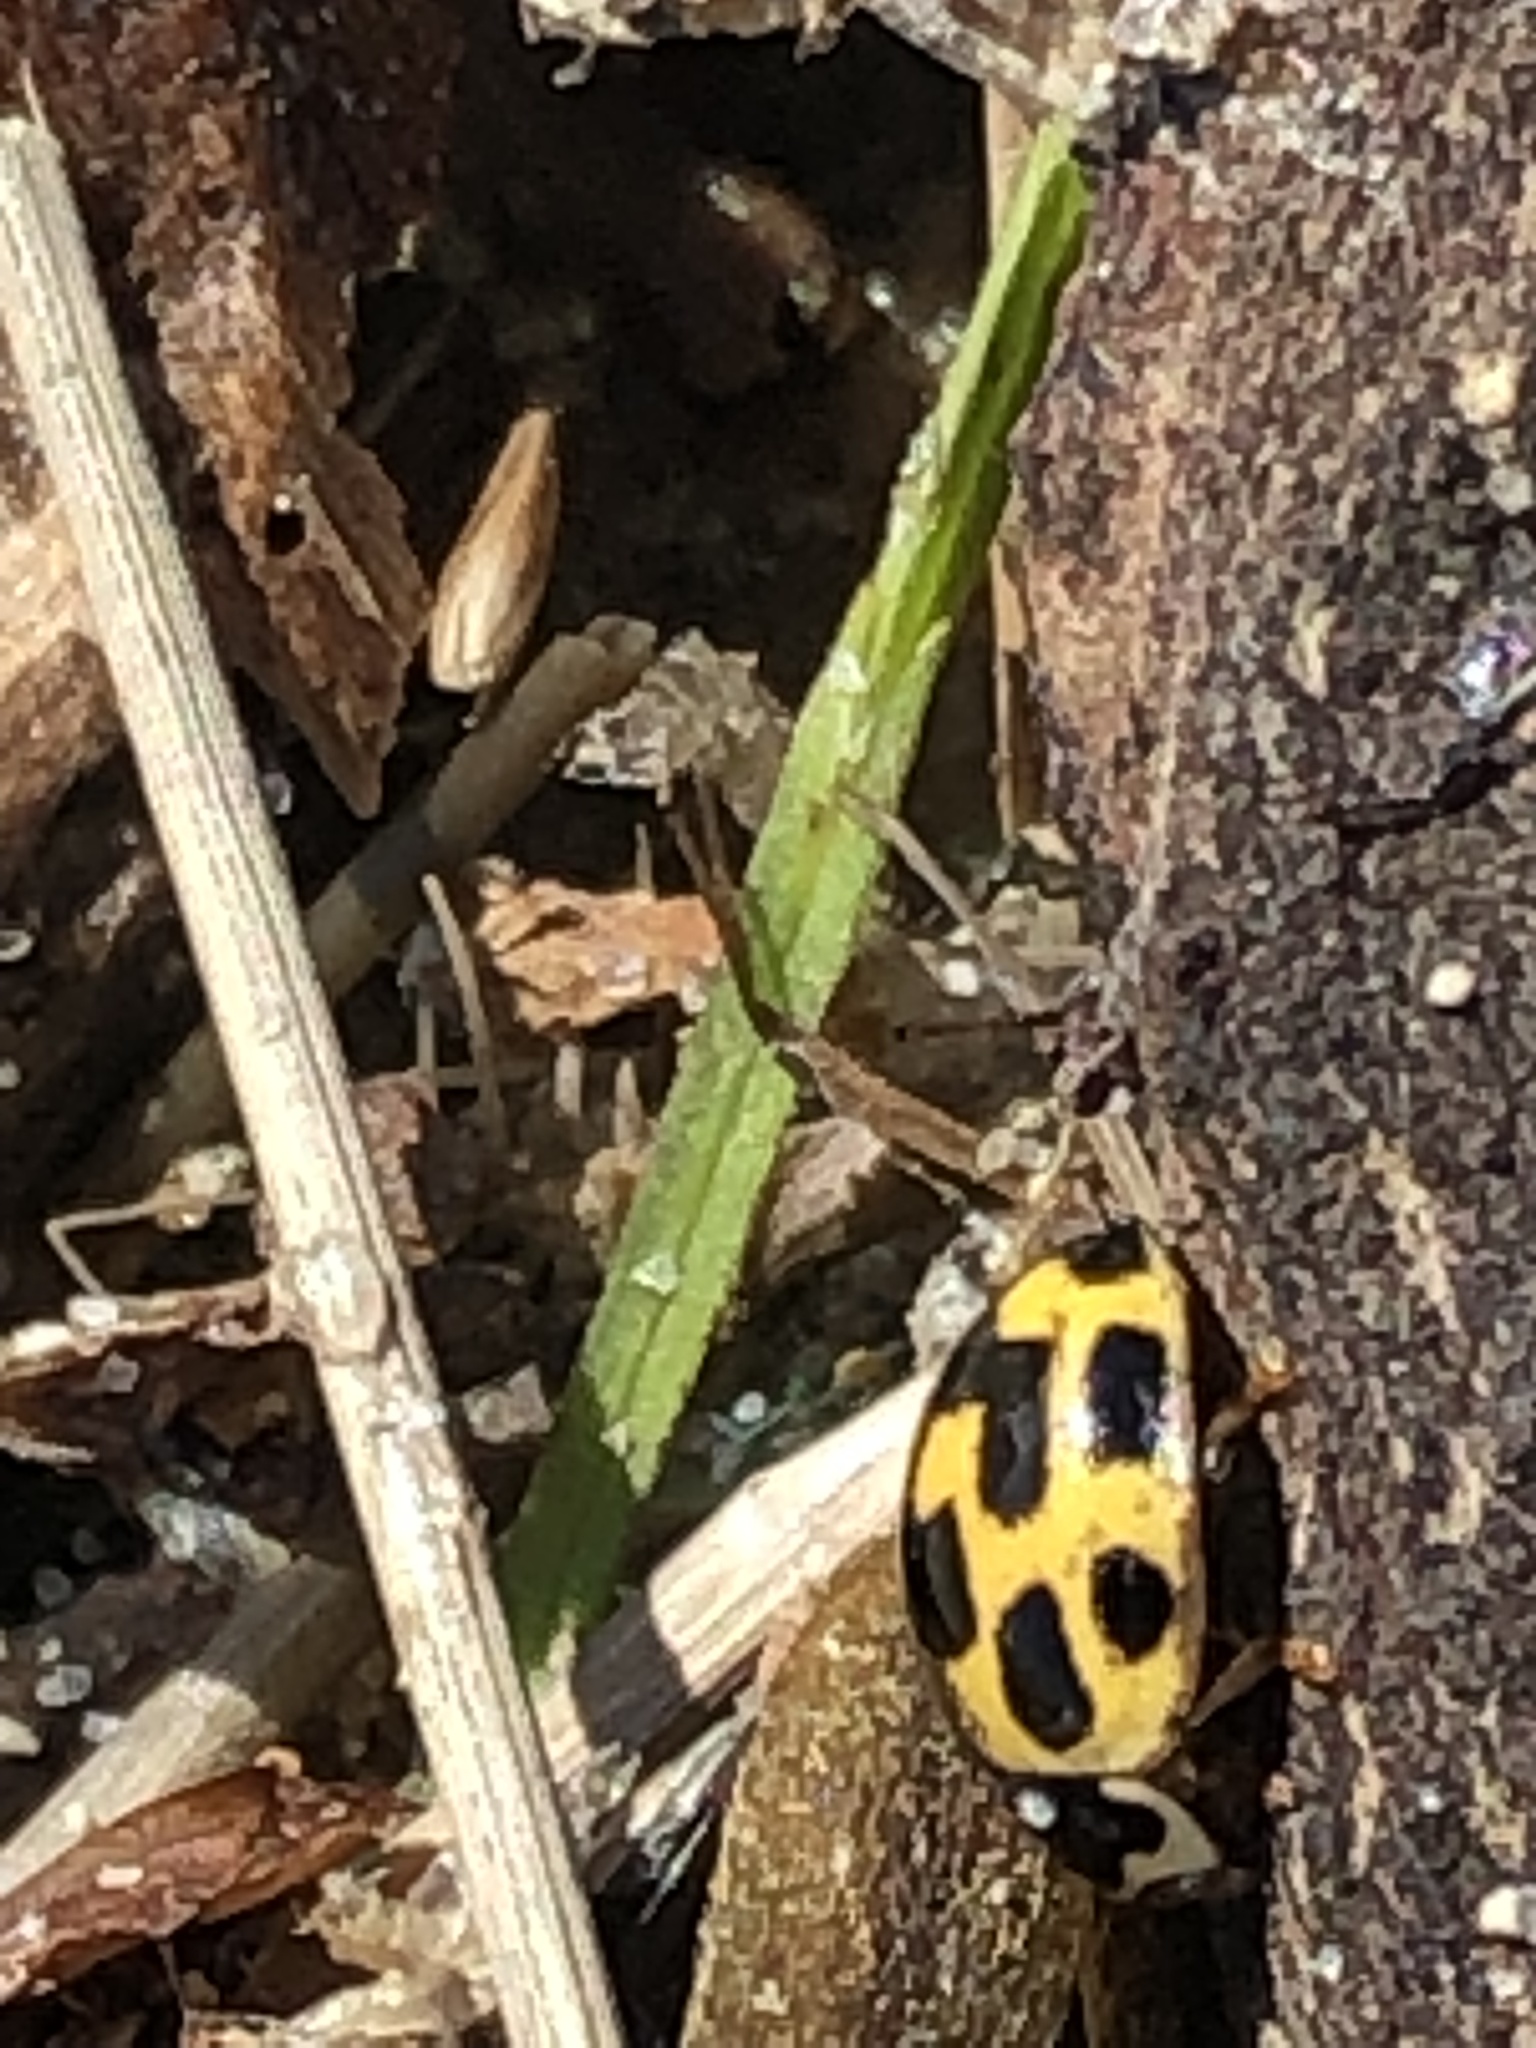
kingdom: Animalia
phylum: Arthropoda
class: Insecta
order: Coleoptera
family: Coccinellidae
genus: Propylaea
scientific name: Propylaea quatuordecimpunctata
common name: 14-spotted ladybird beetle
